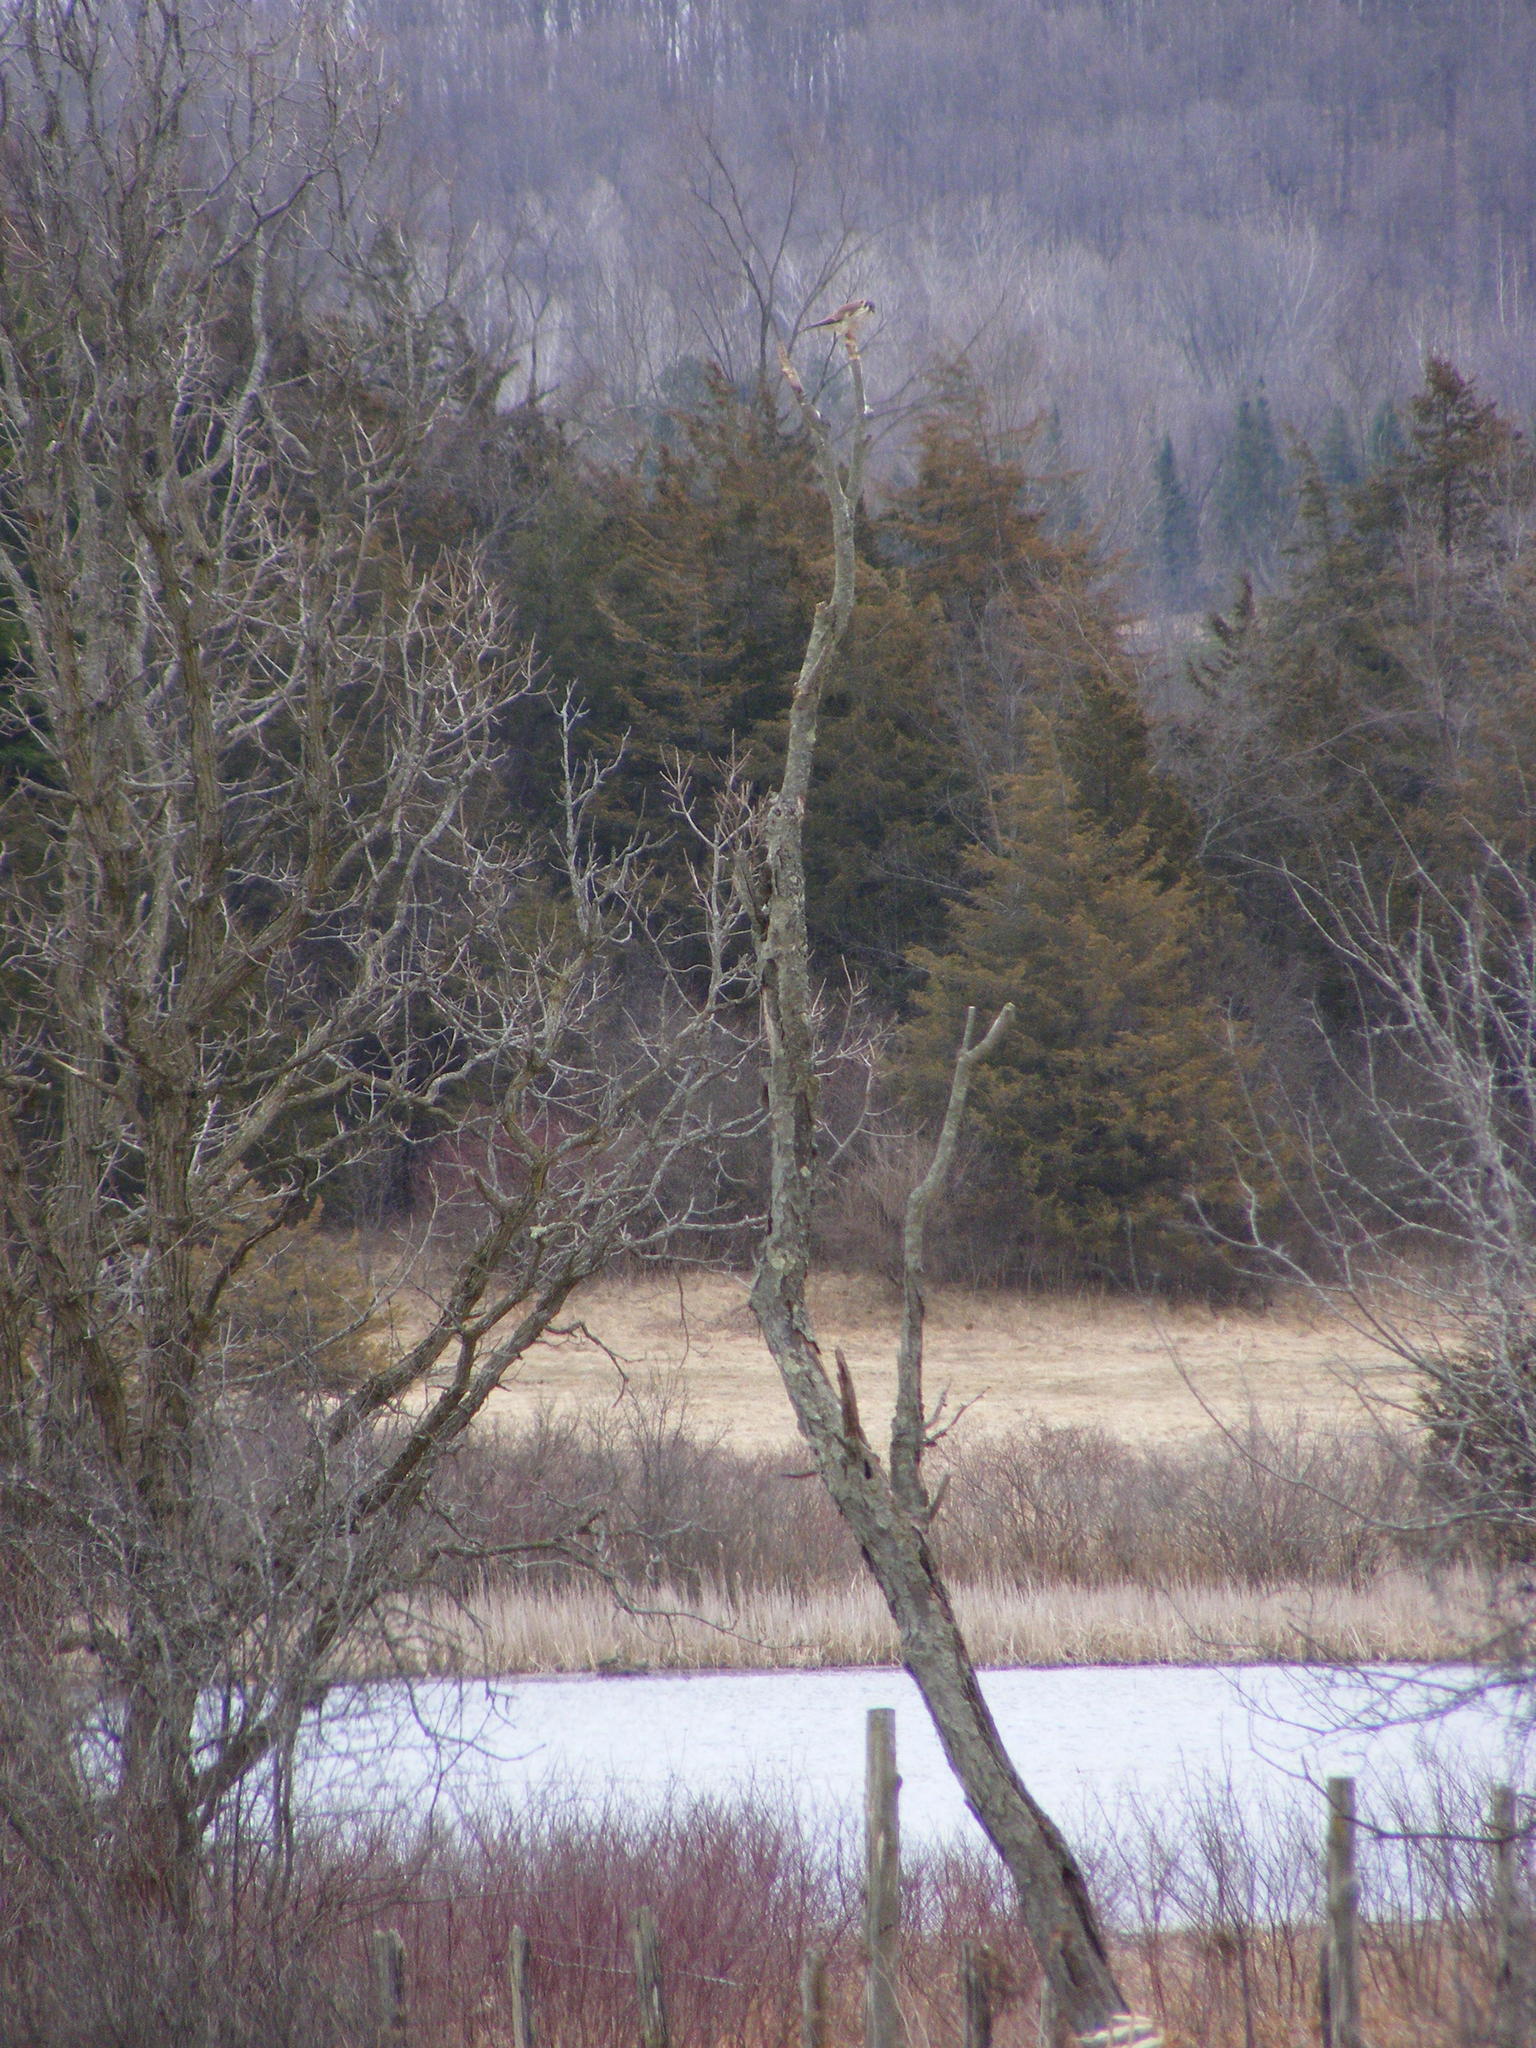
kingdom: Animalia
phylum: Chordata
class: Aves
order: Falconiformes
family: Falconidae
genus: Falco
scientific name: Falco sparverius
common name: American kestrel
